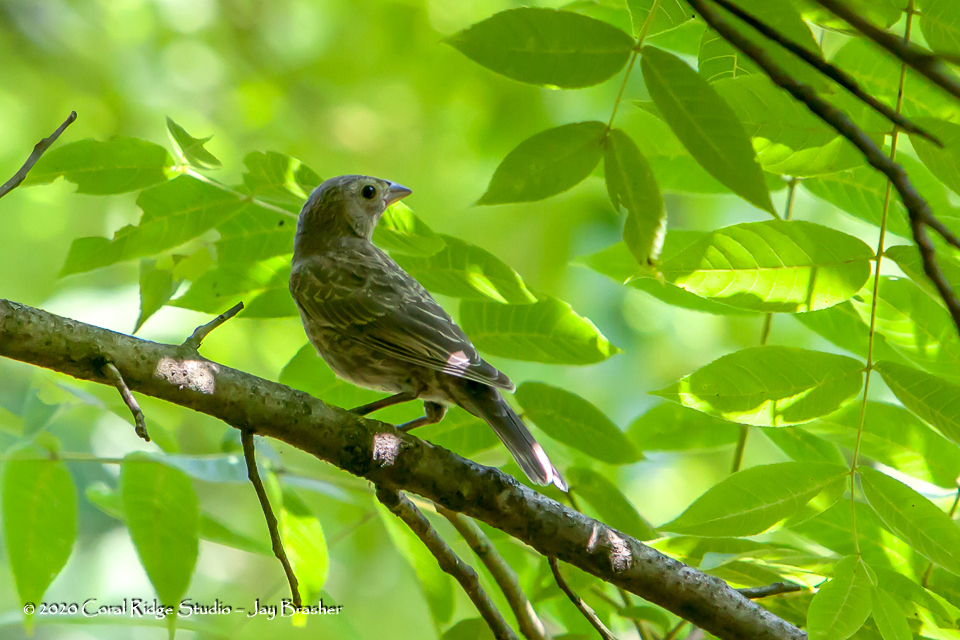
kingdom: Animalia
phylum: Chordata
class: Aves
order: Passeriformes
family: Cardinalidae
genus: Passerina
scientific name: Passerina cyanea
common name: Indigo bunting
